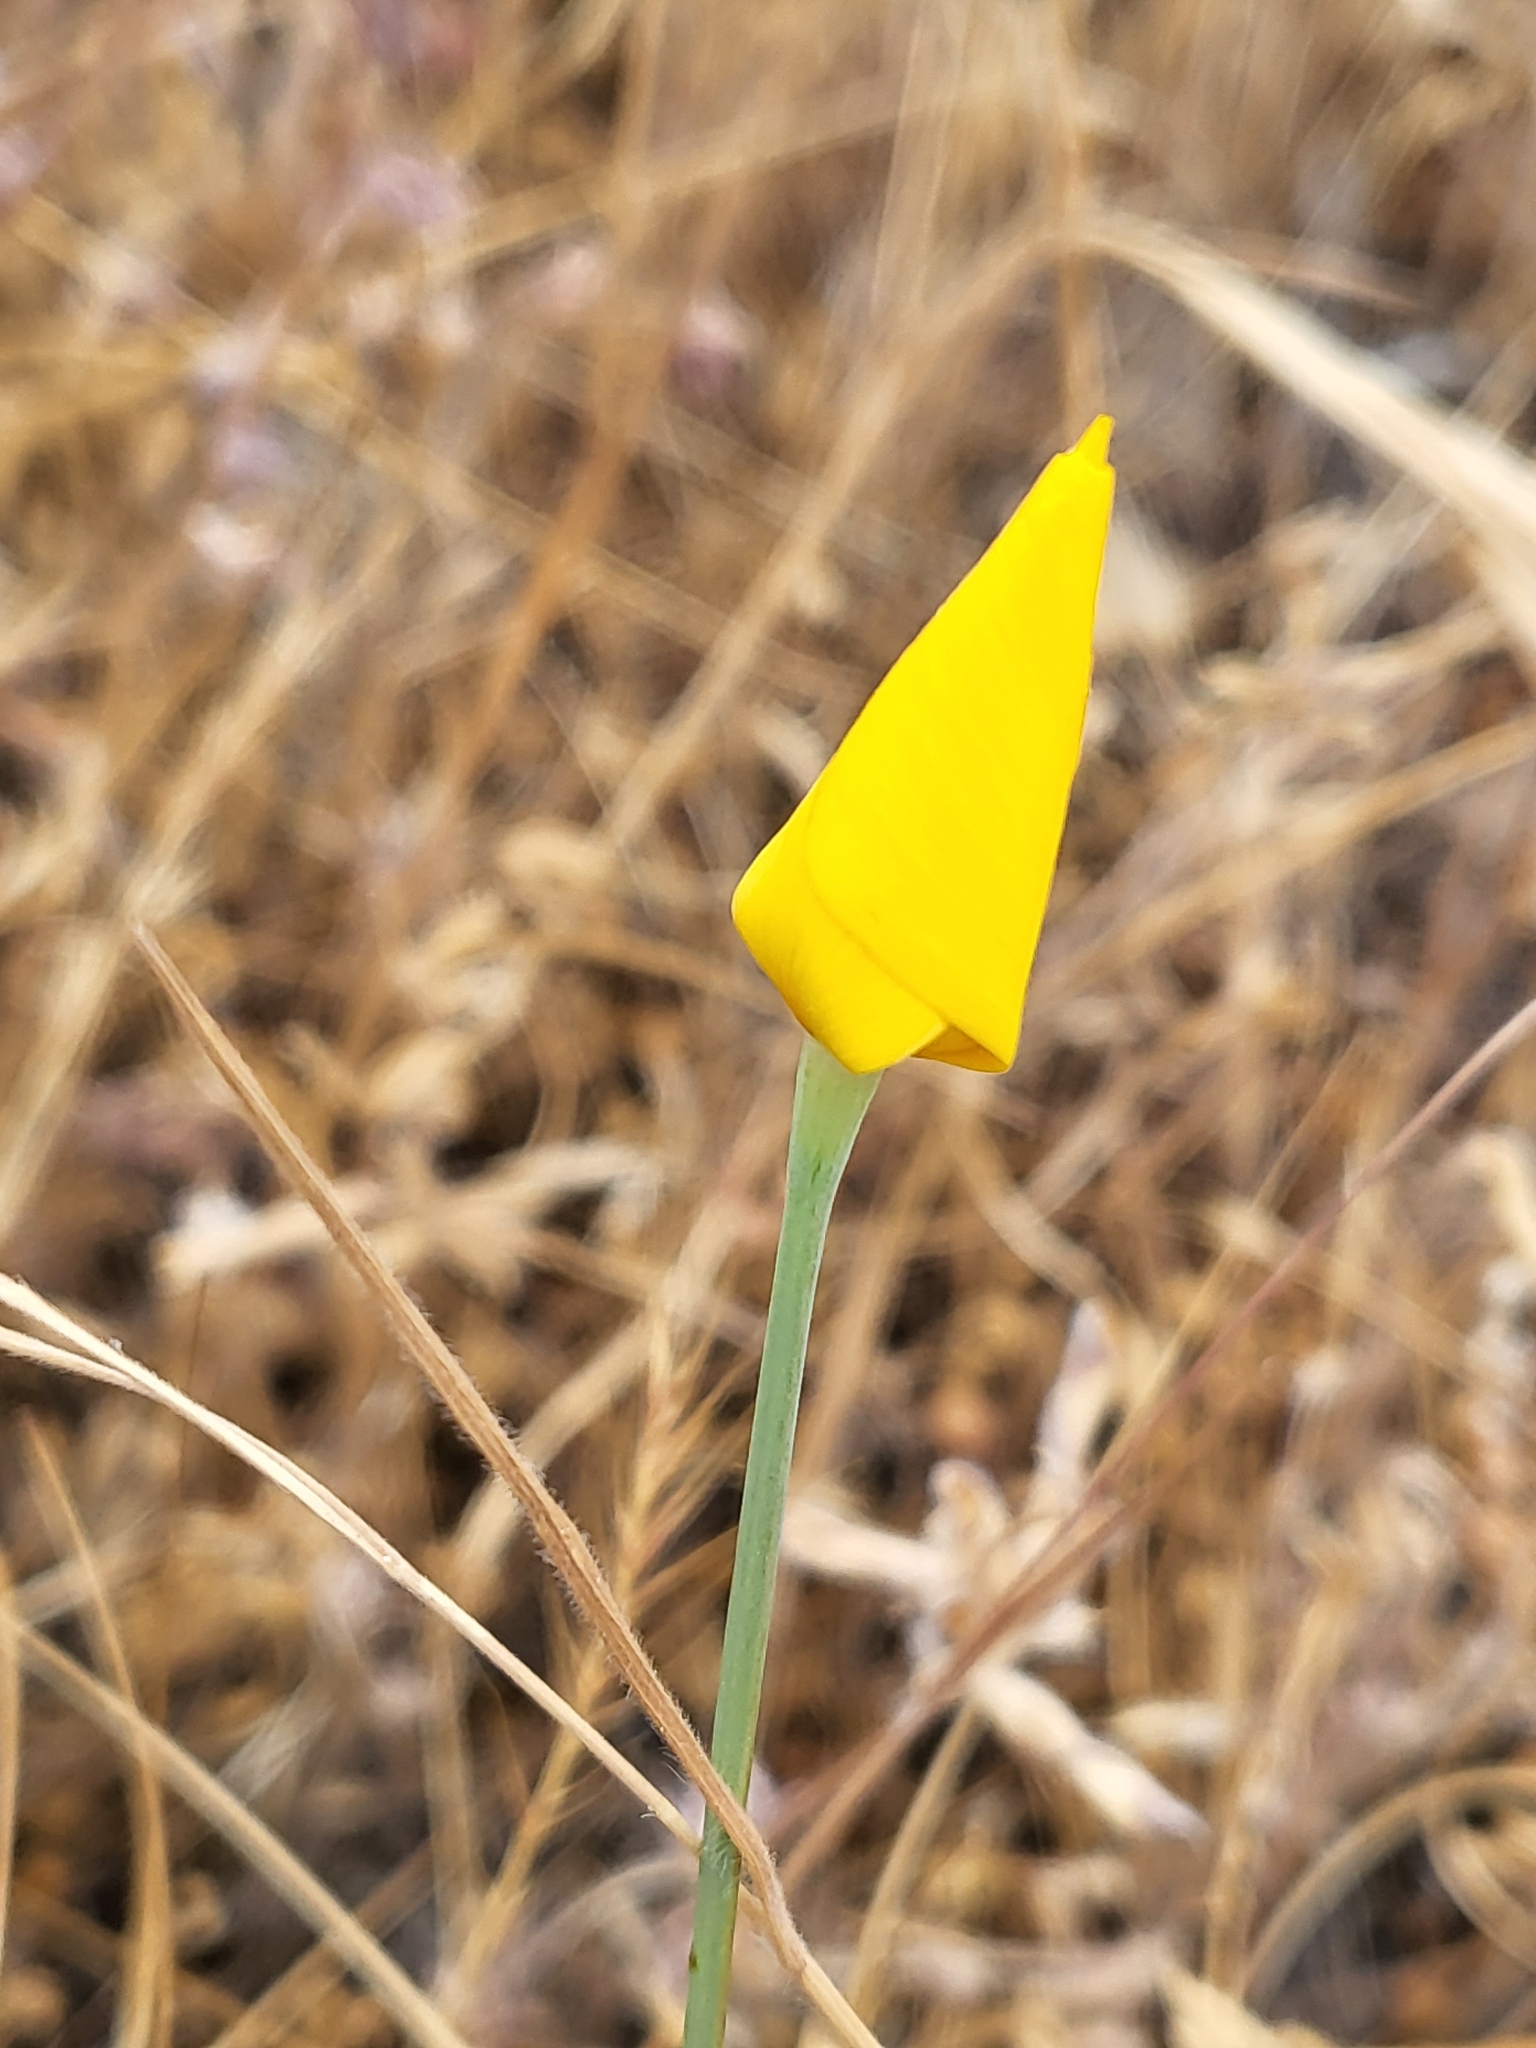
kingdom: Plantae
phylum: Tracheophyta
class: Magnoliopsida
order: Ranunculales
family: Papaveraceae
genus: Eschscholzia
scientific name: Eschscholzia caespitosa
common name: Tufted california-poppy
